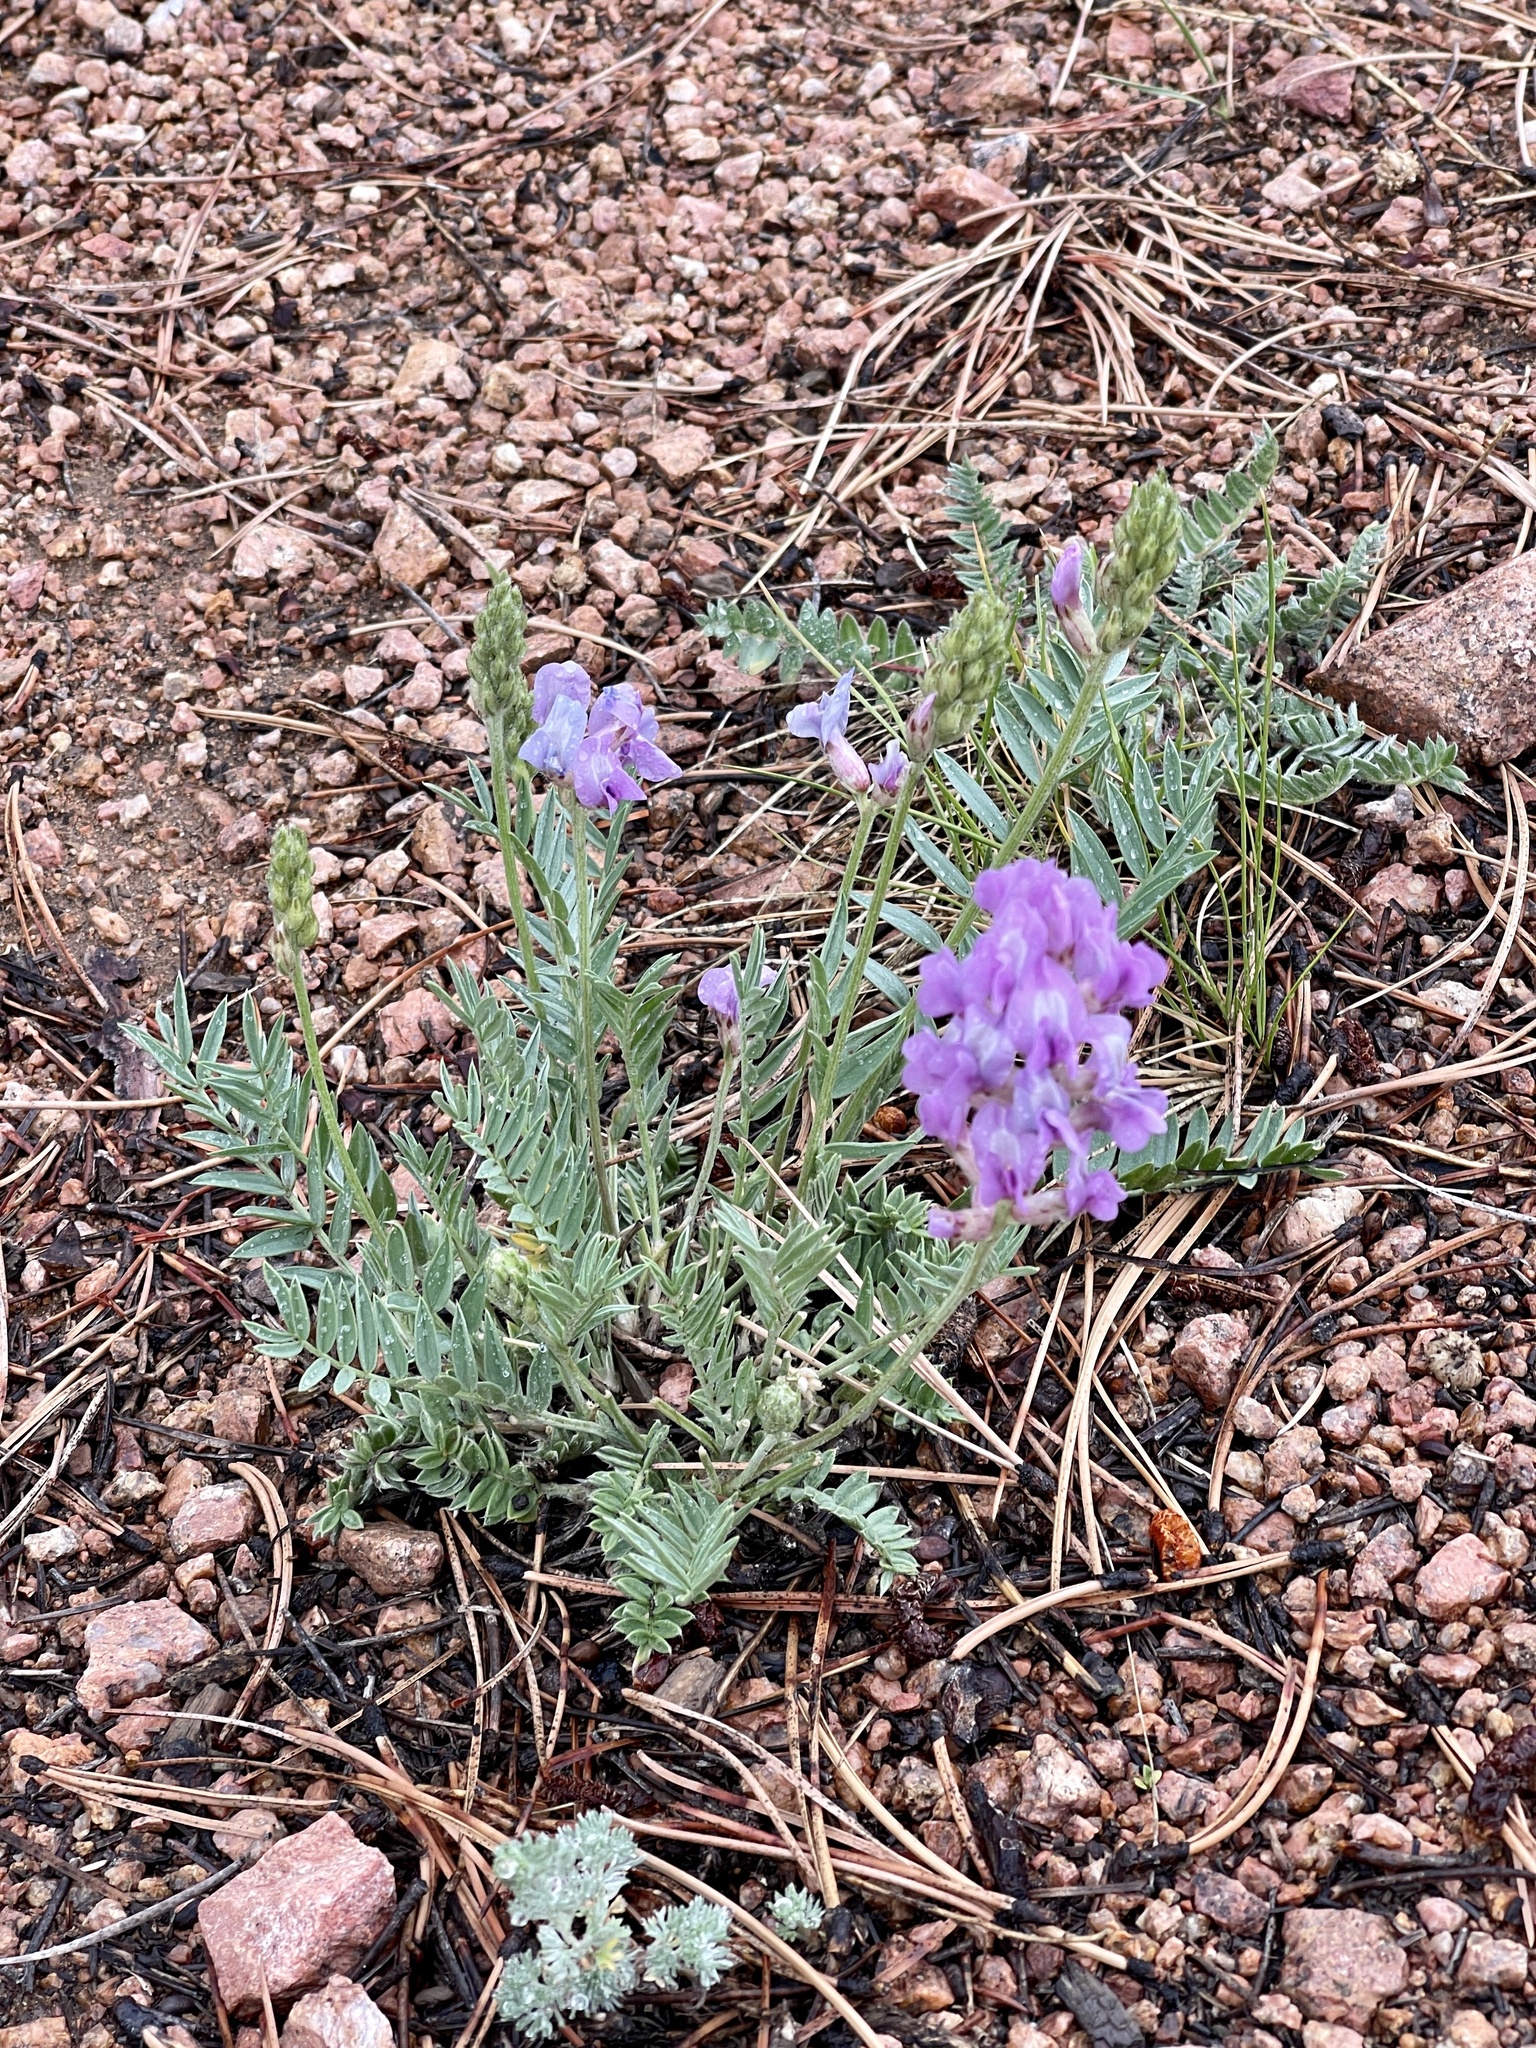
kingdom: Plantae
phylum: Tracheophyta
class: Magnoliopsida
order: Fabales
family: Fabaceae
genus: Oxytropis
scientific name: Oxytropis lambertii
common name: Purple locoweed
